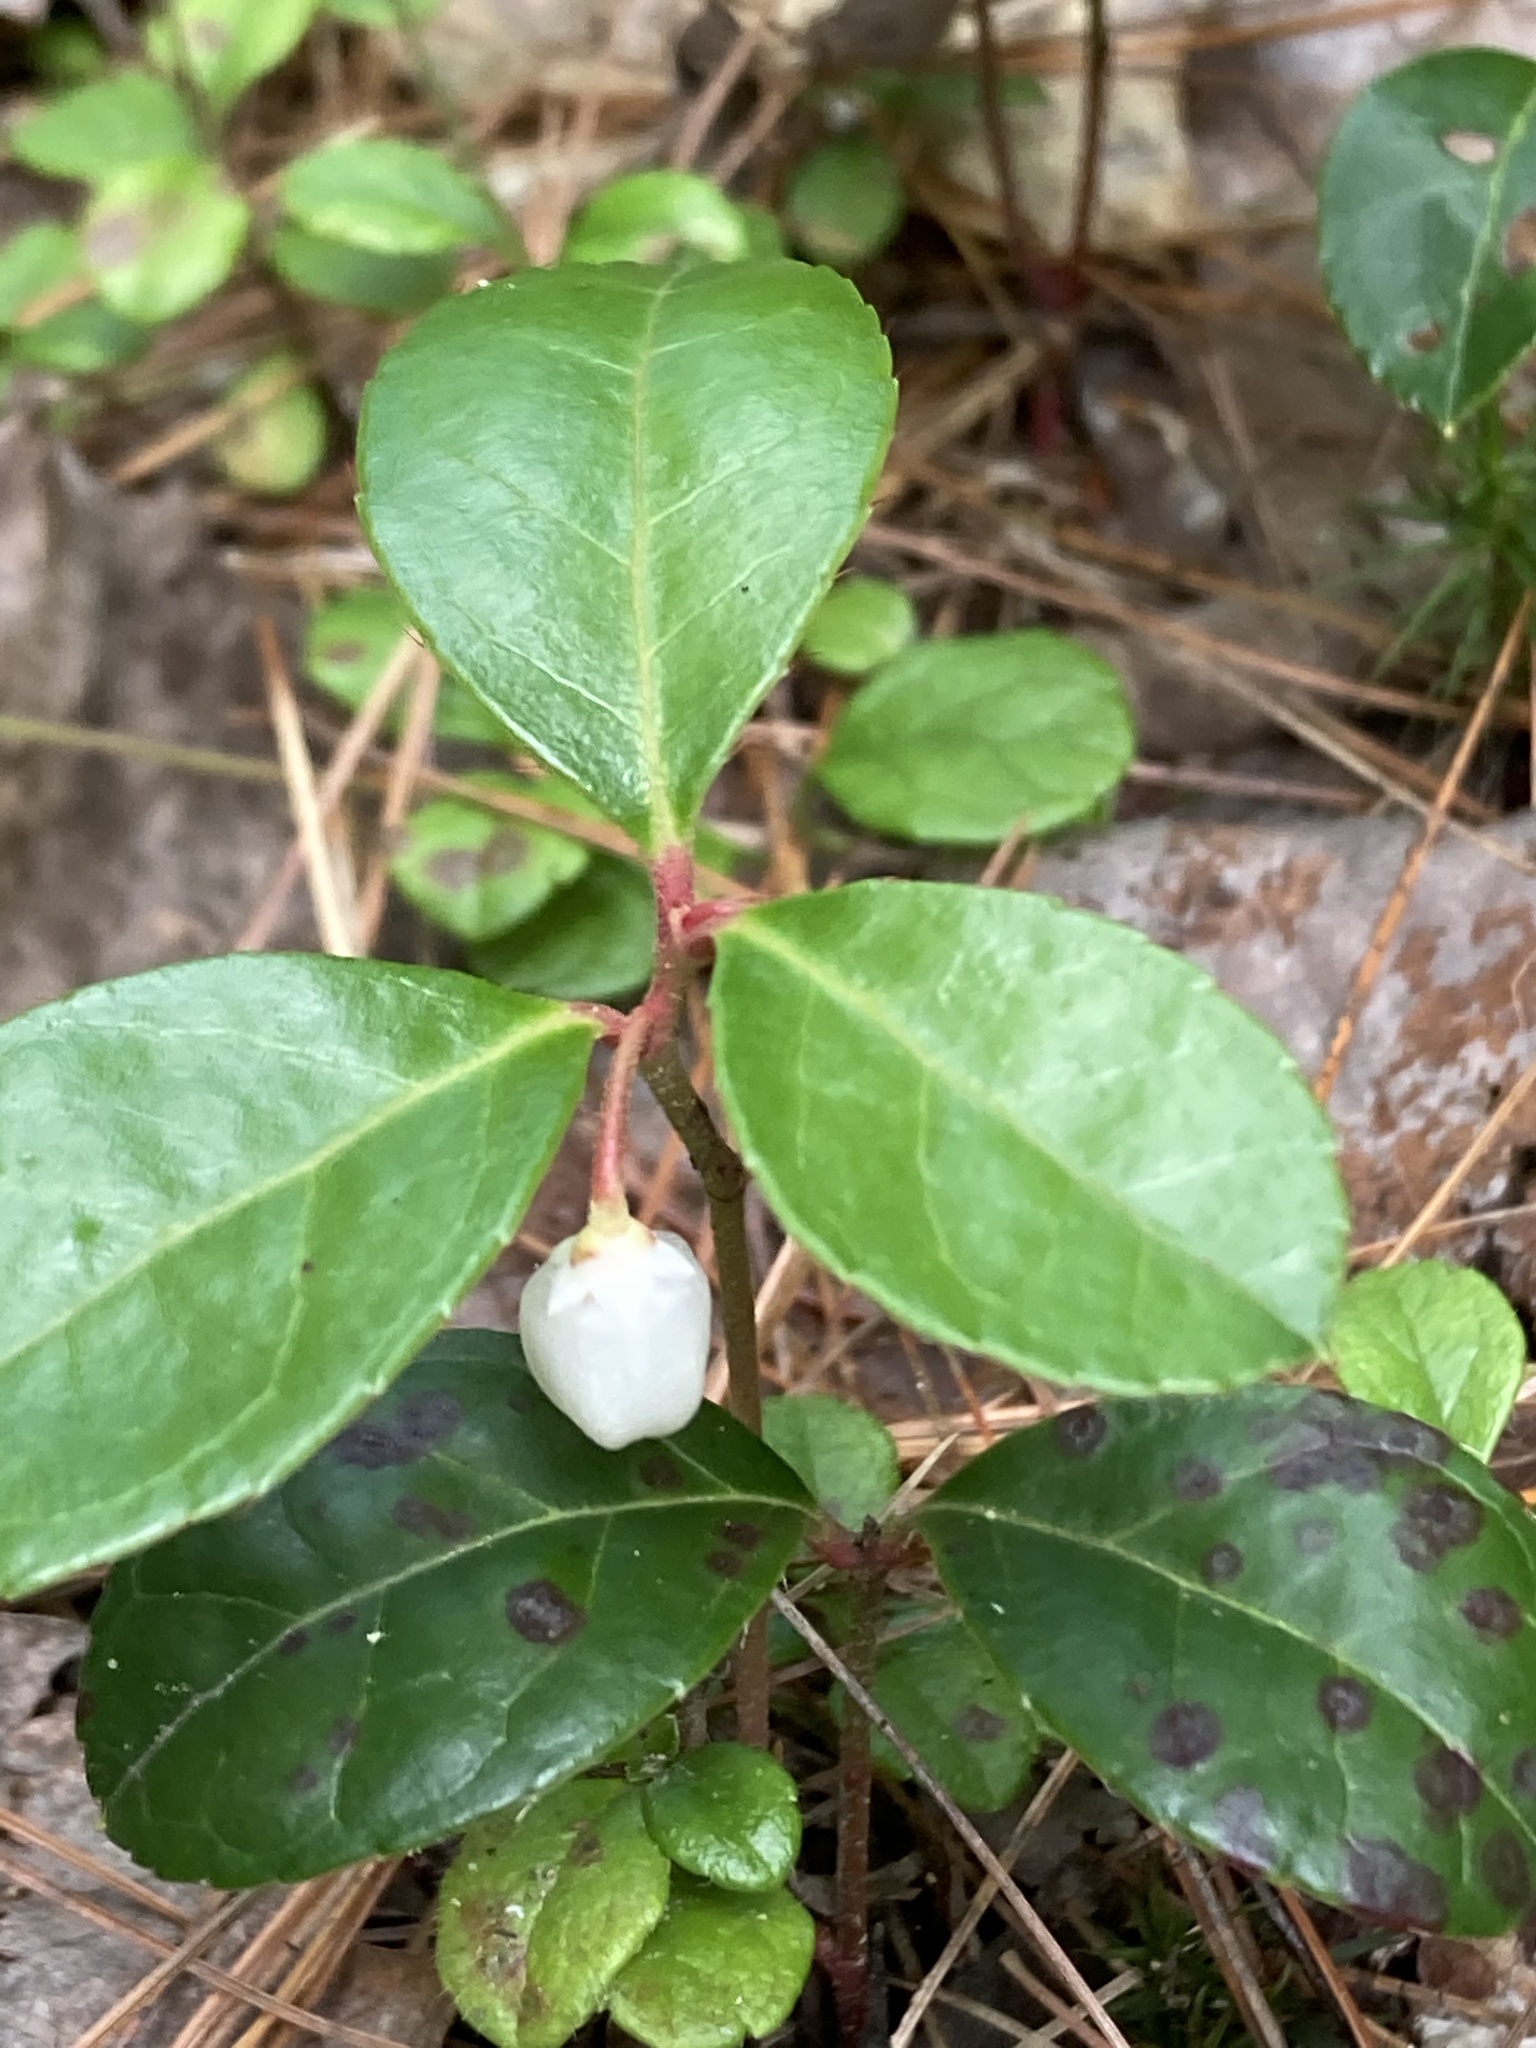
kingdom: Plantae
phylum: Tracheophyta
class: Magnoliopsida
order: Ericales
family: Ericaceae
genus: Gaultheria
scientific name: Gaultheria procumbens
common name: Checkerberry
